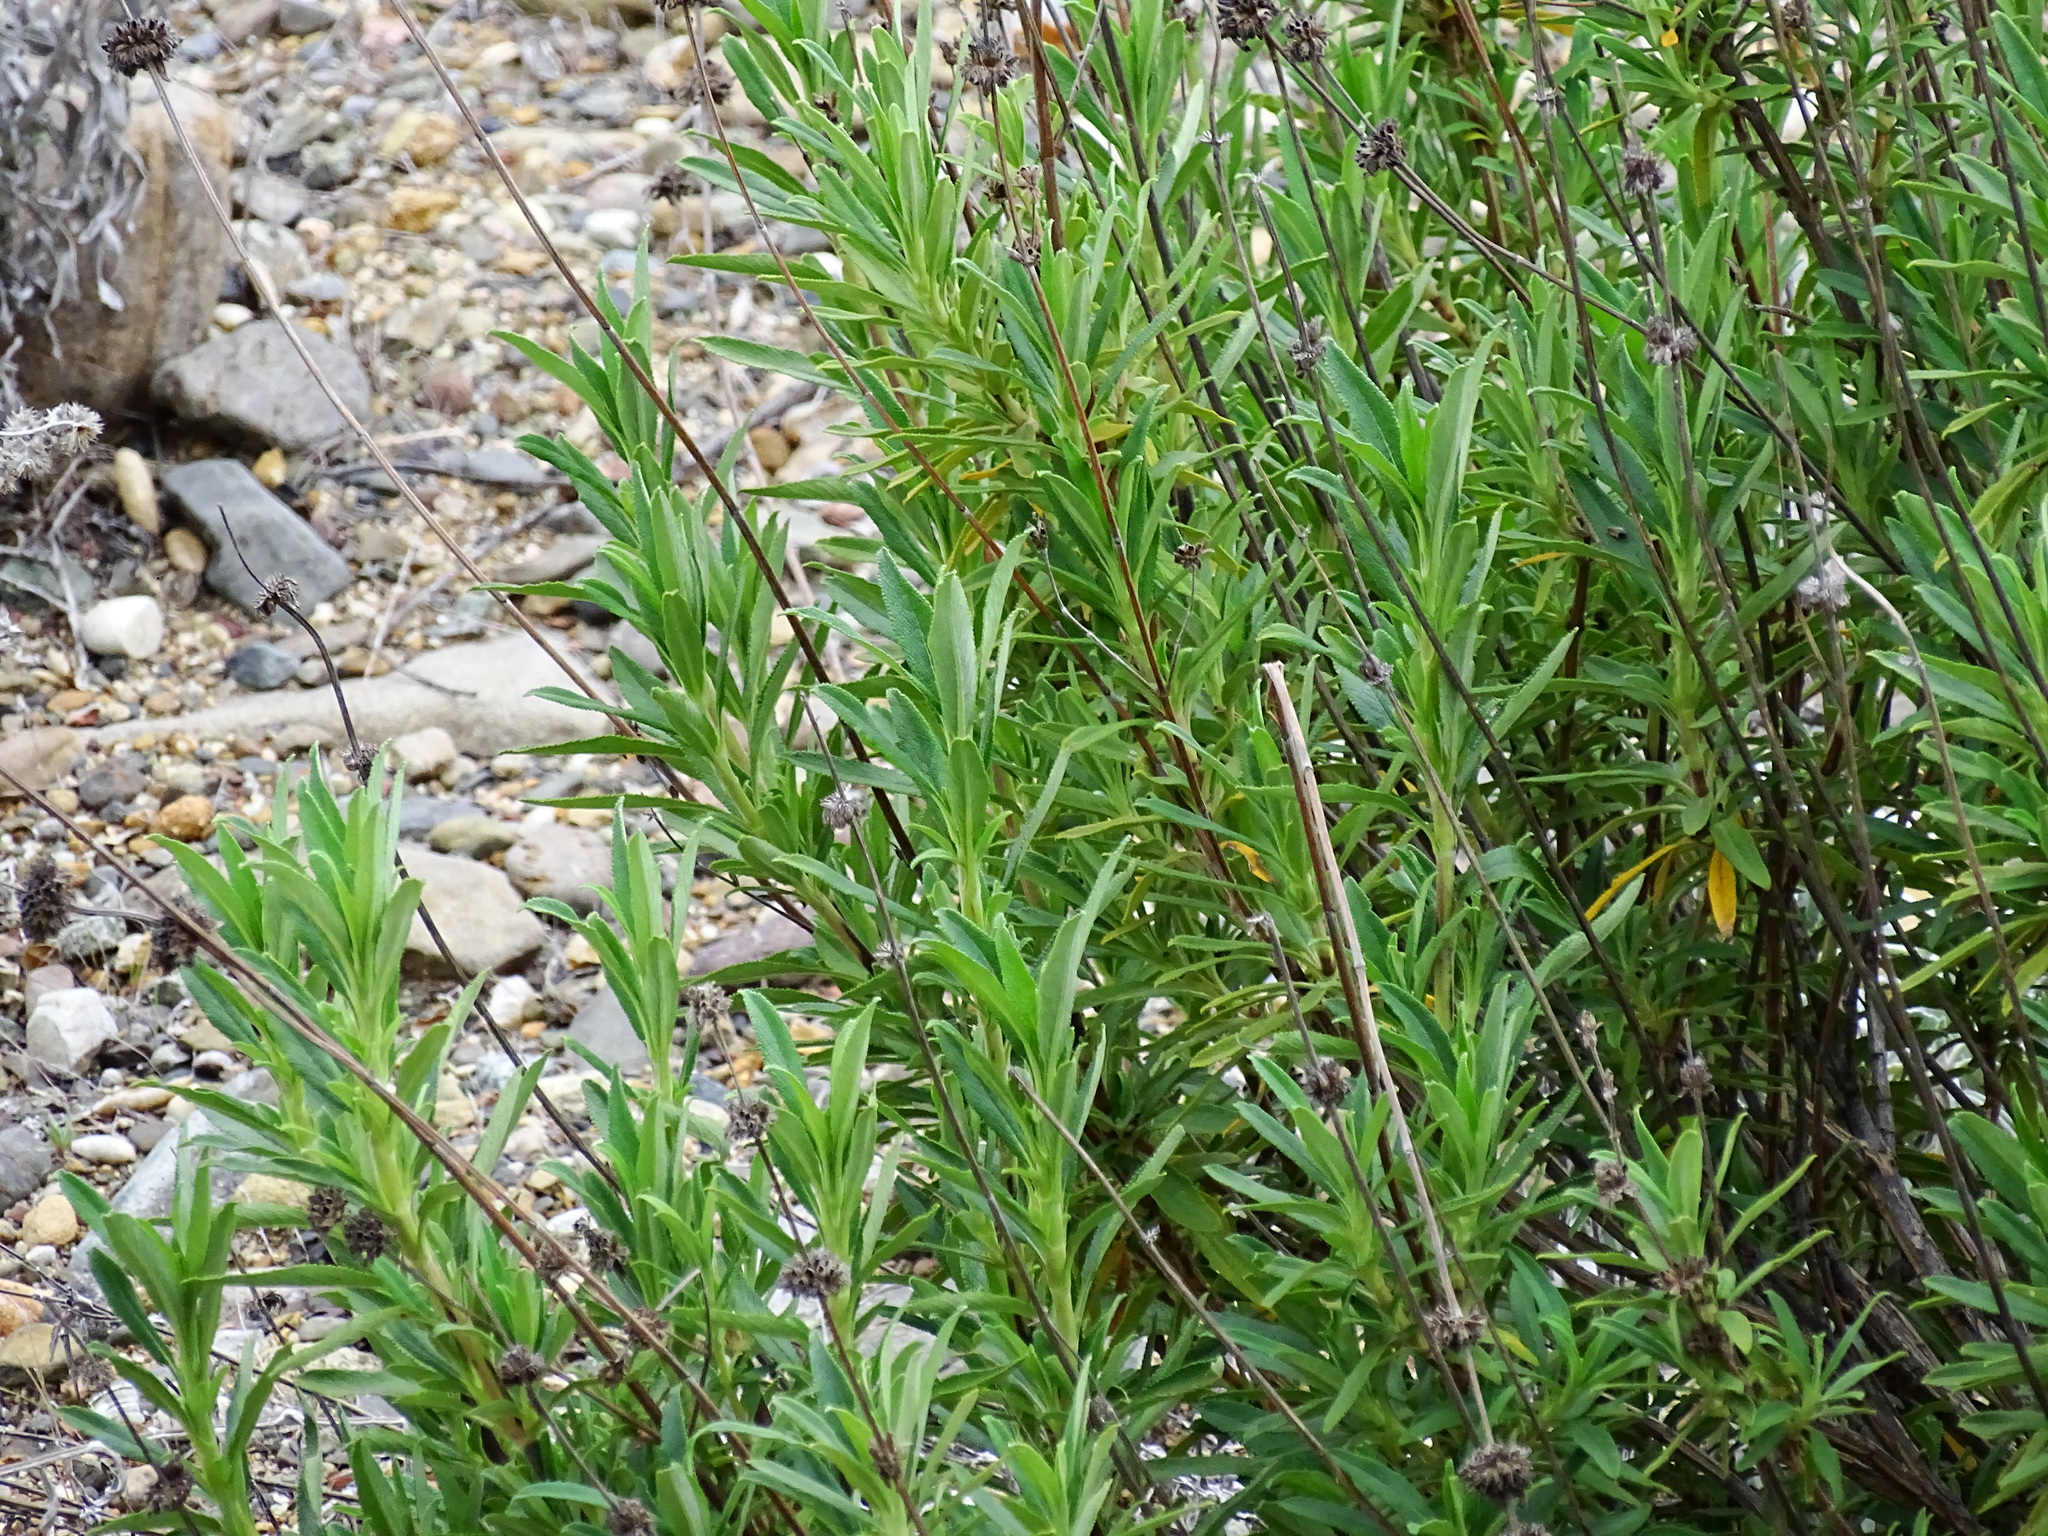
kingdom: Plantae
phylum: Tracheophyta
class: Magnoliopsida
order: Lamiales
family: Lamiaceae
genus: Salvia
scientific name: Salvia mellifera
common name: Black sage
